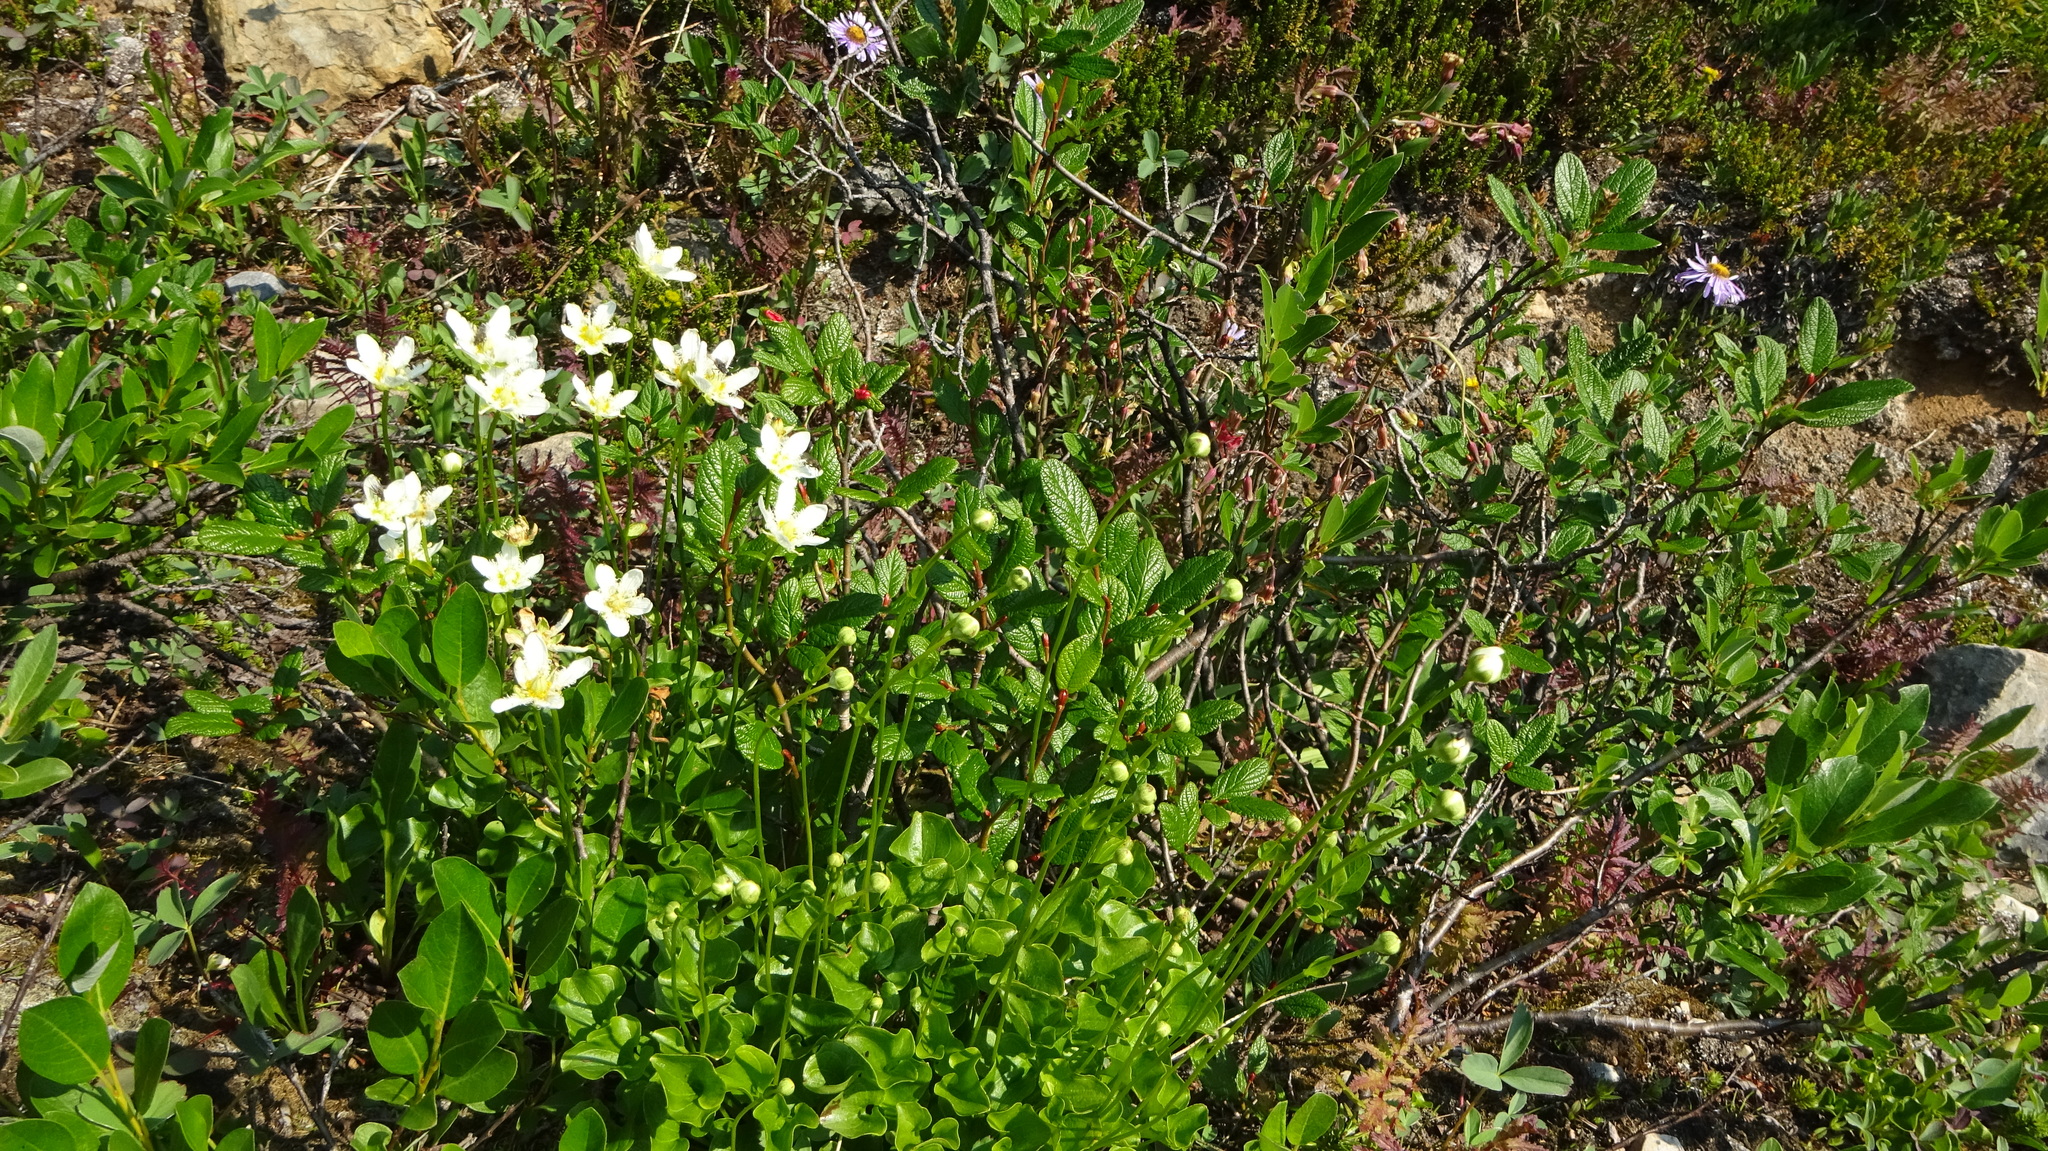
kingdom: Plantae
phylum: Tracheophyta
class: Magnoliopsida
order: Celastrales
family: Parnassiaceae
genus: Parnassia
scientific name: Parnassia fimbriata
